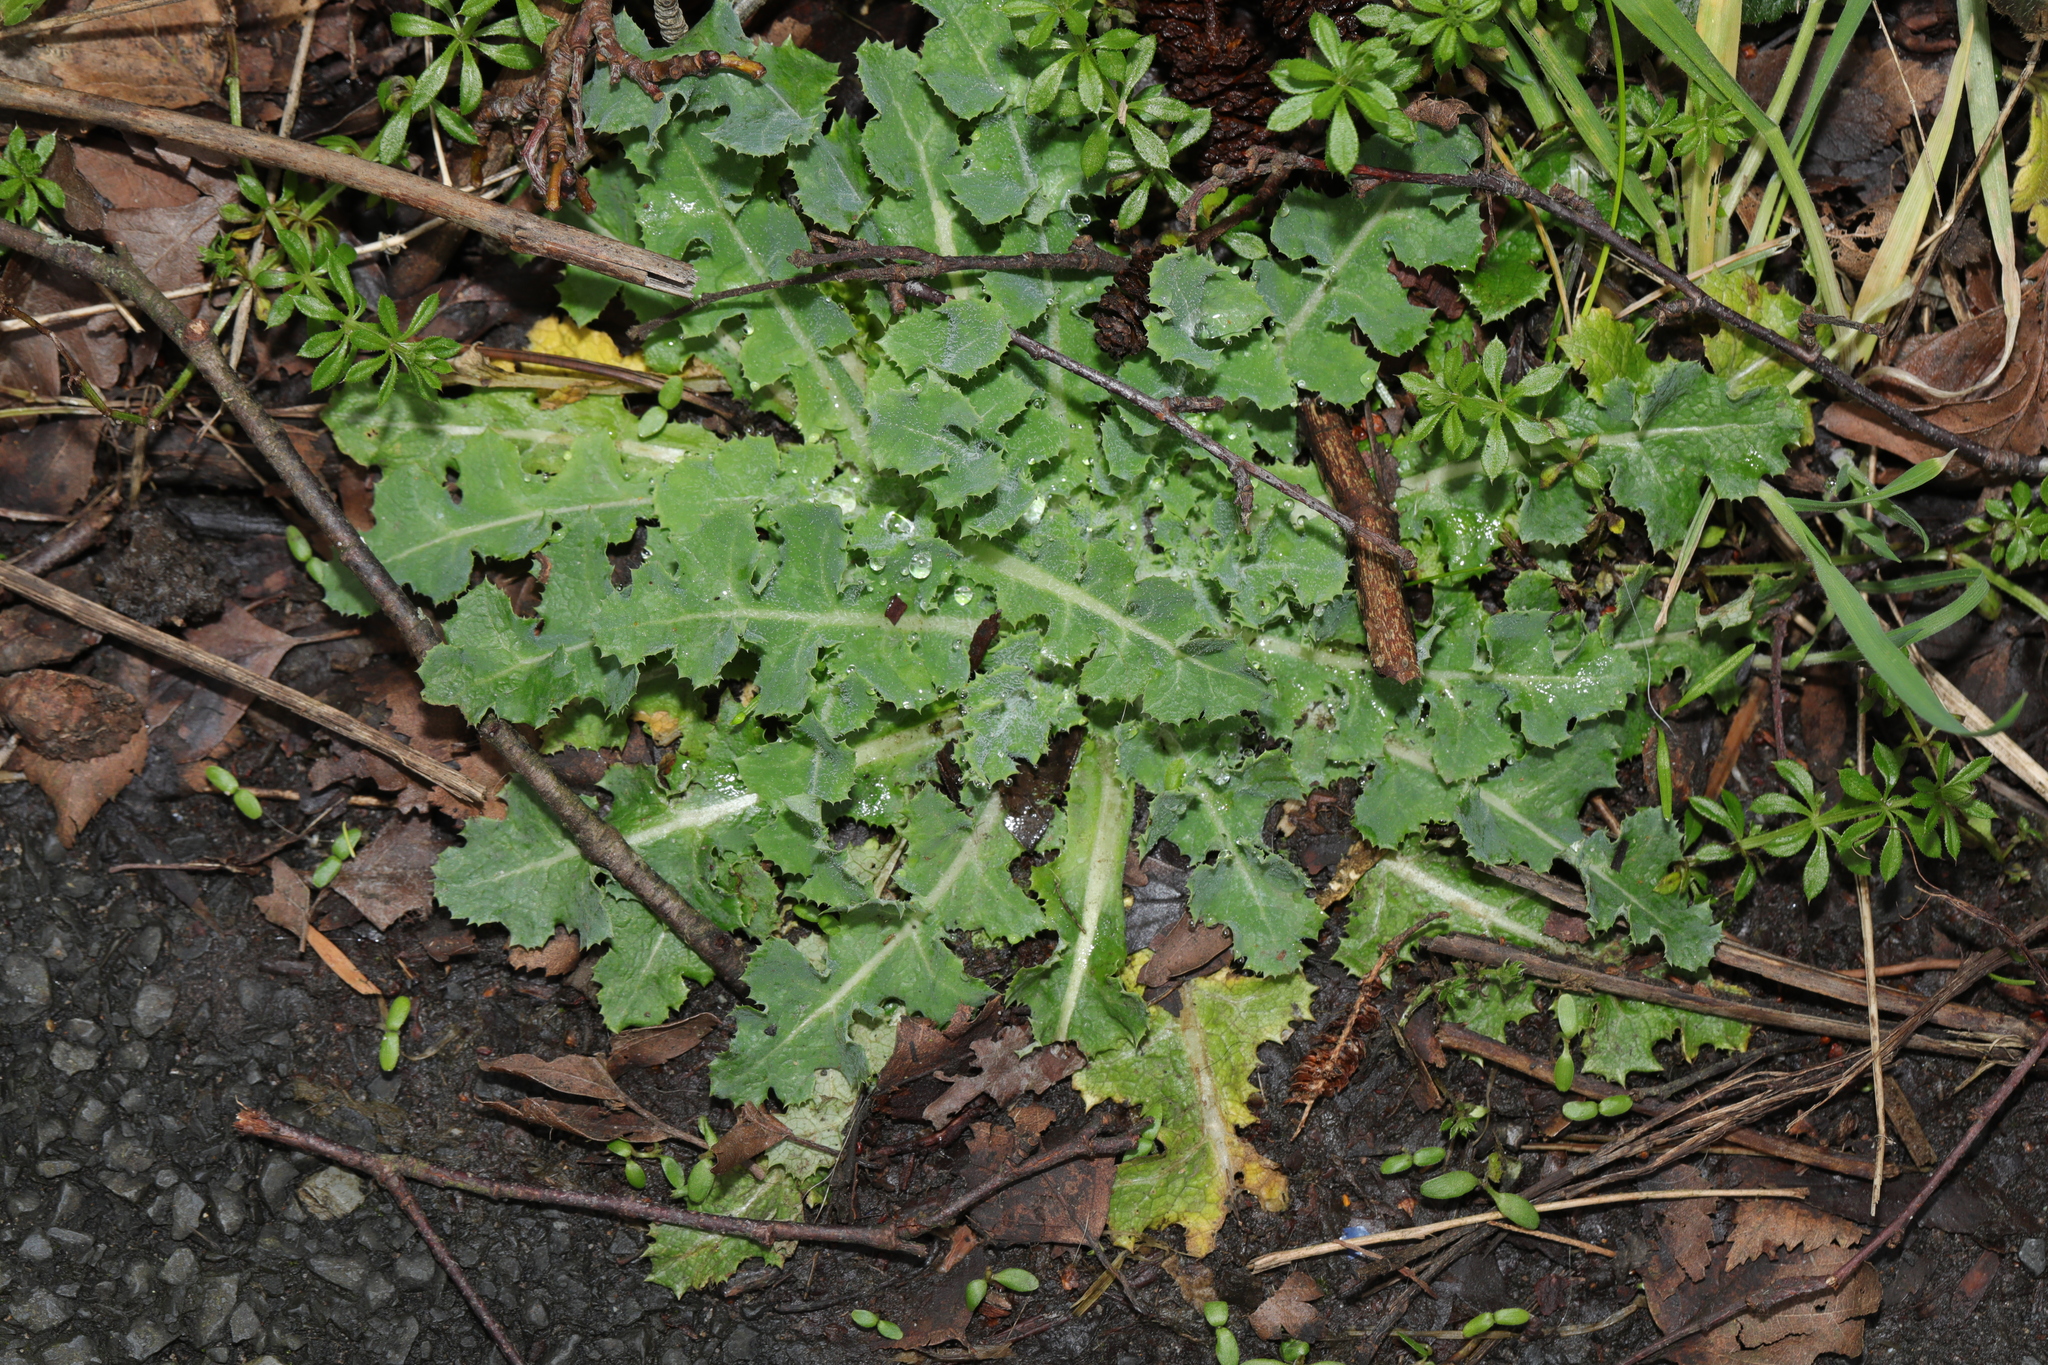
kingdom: Plantae
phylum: Tracheophyta
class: Magnoliopsida
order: Asterales
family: Asteraceae
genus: Sonchus
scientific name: Sonchus asper
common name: Prickly sow-thistle
